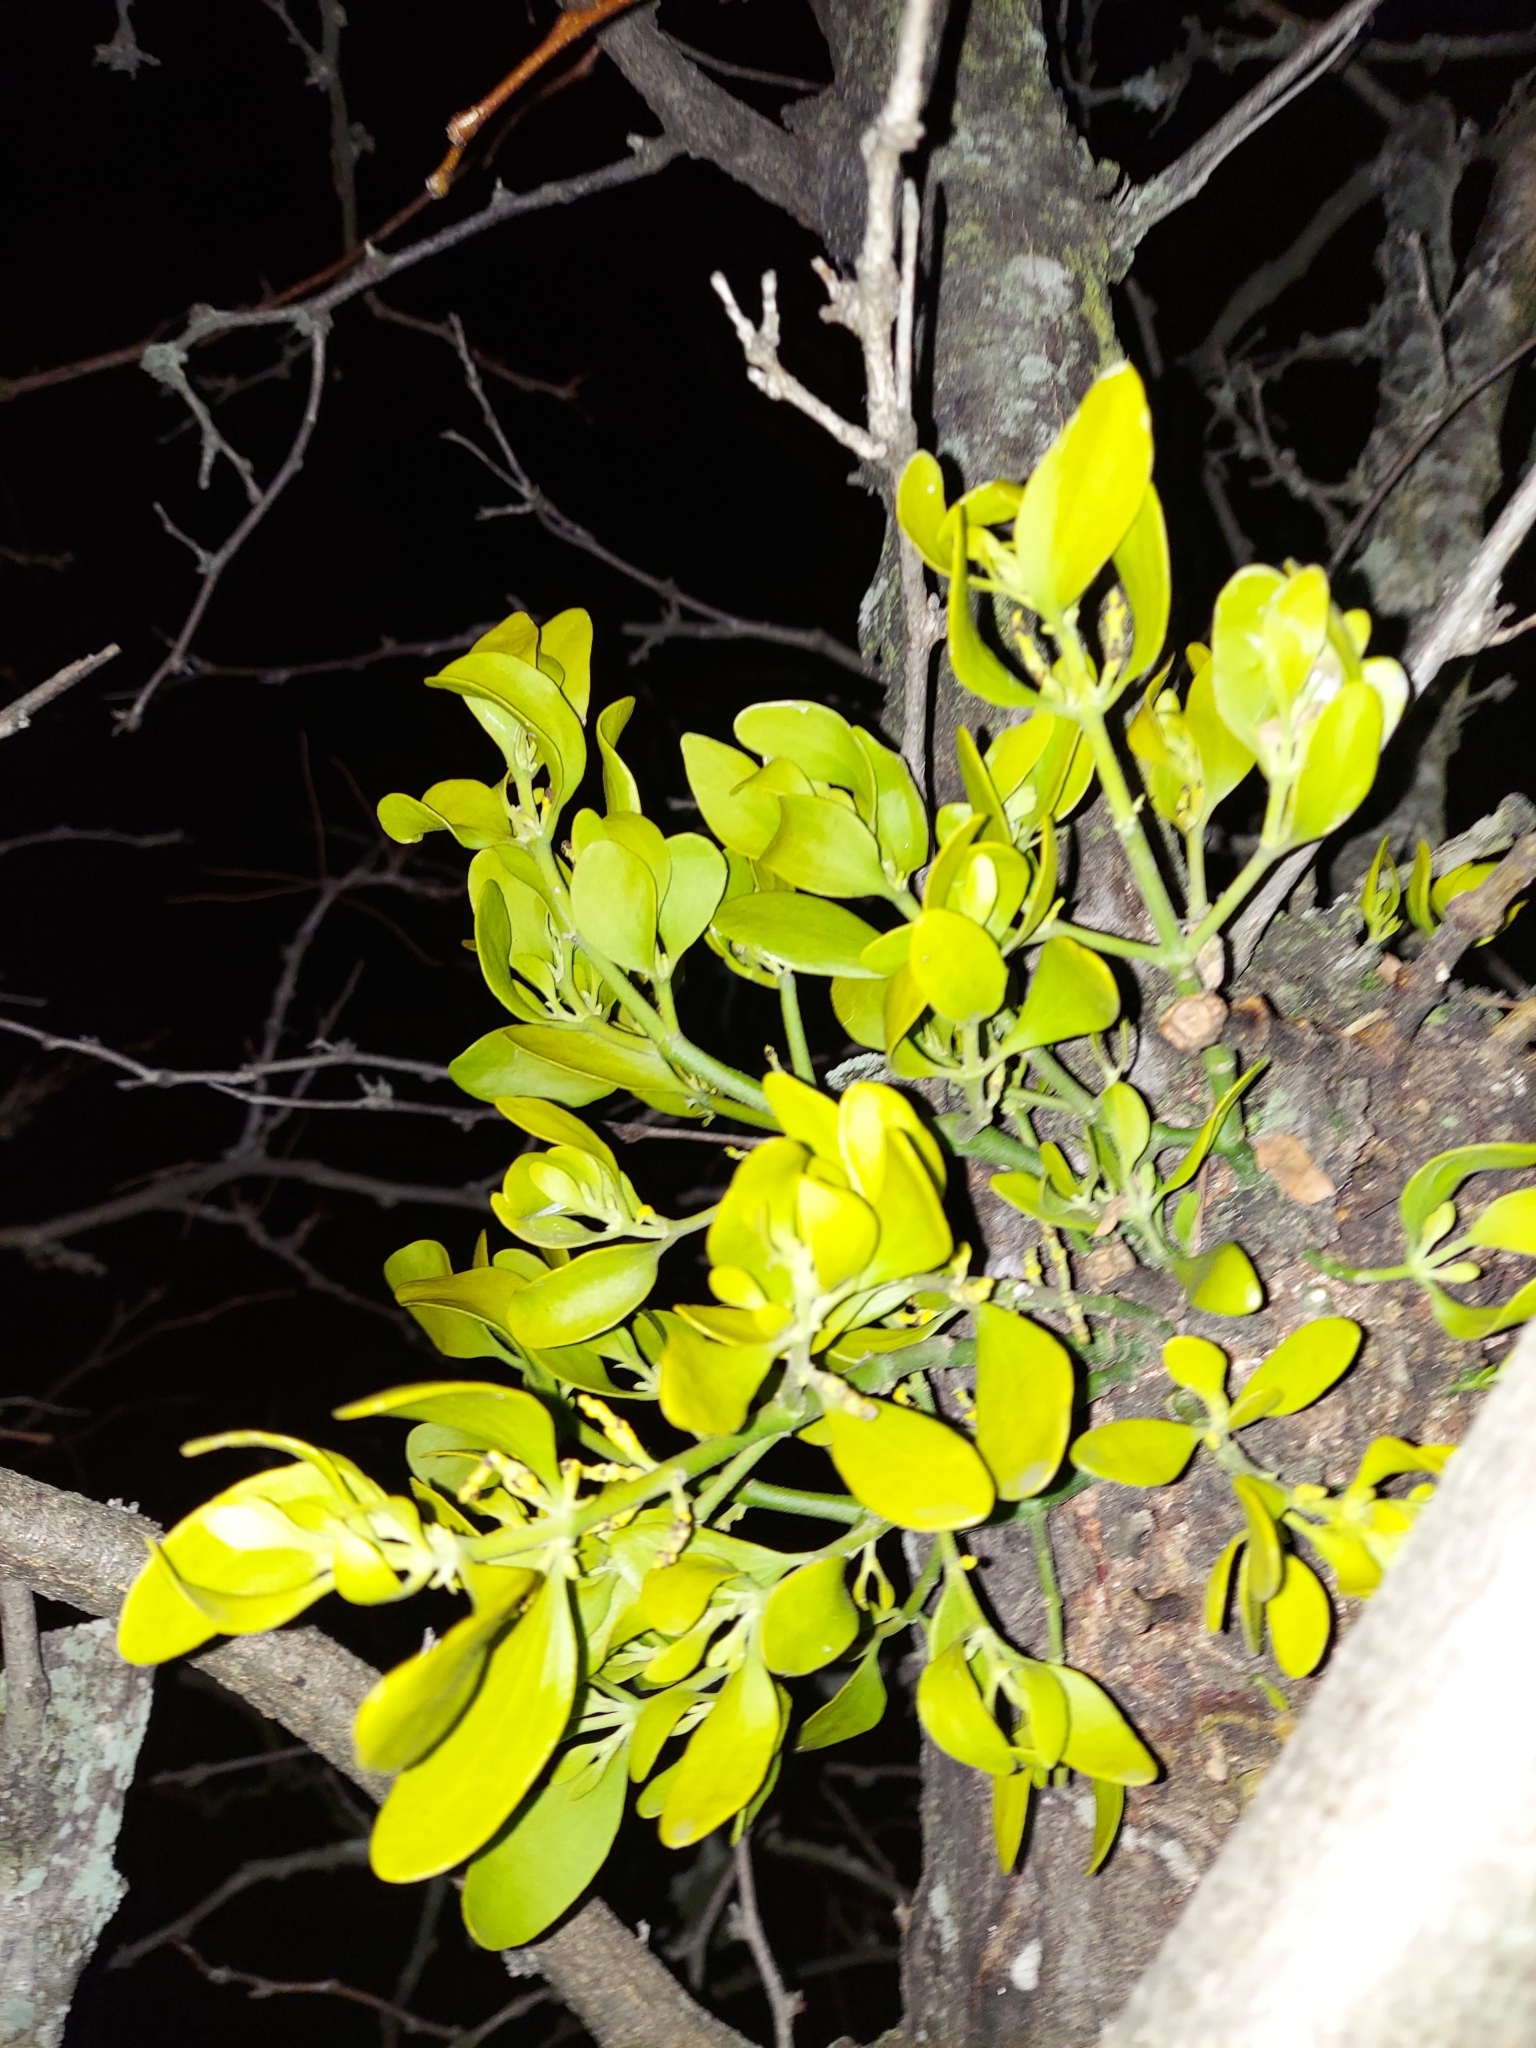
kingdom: Plantae
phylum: Tracheophyta
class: Magnoliopsida
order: Santalales
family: Viscaceae
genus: Phoradendron
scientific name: Phoradendron leucarpum
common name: Pacific mistletoe
